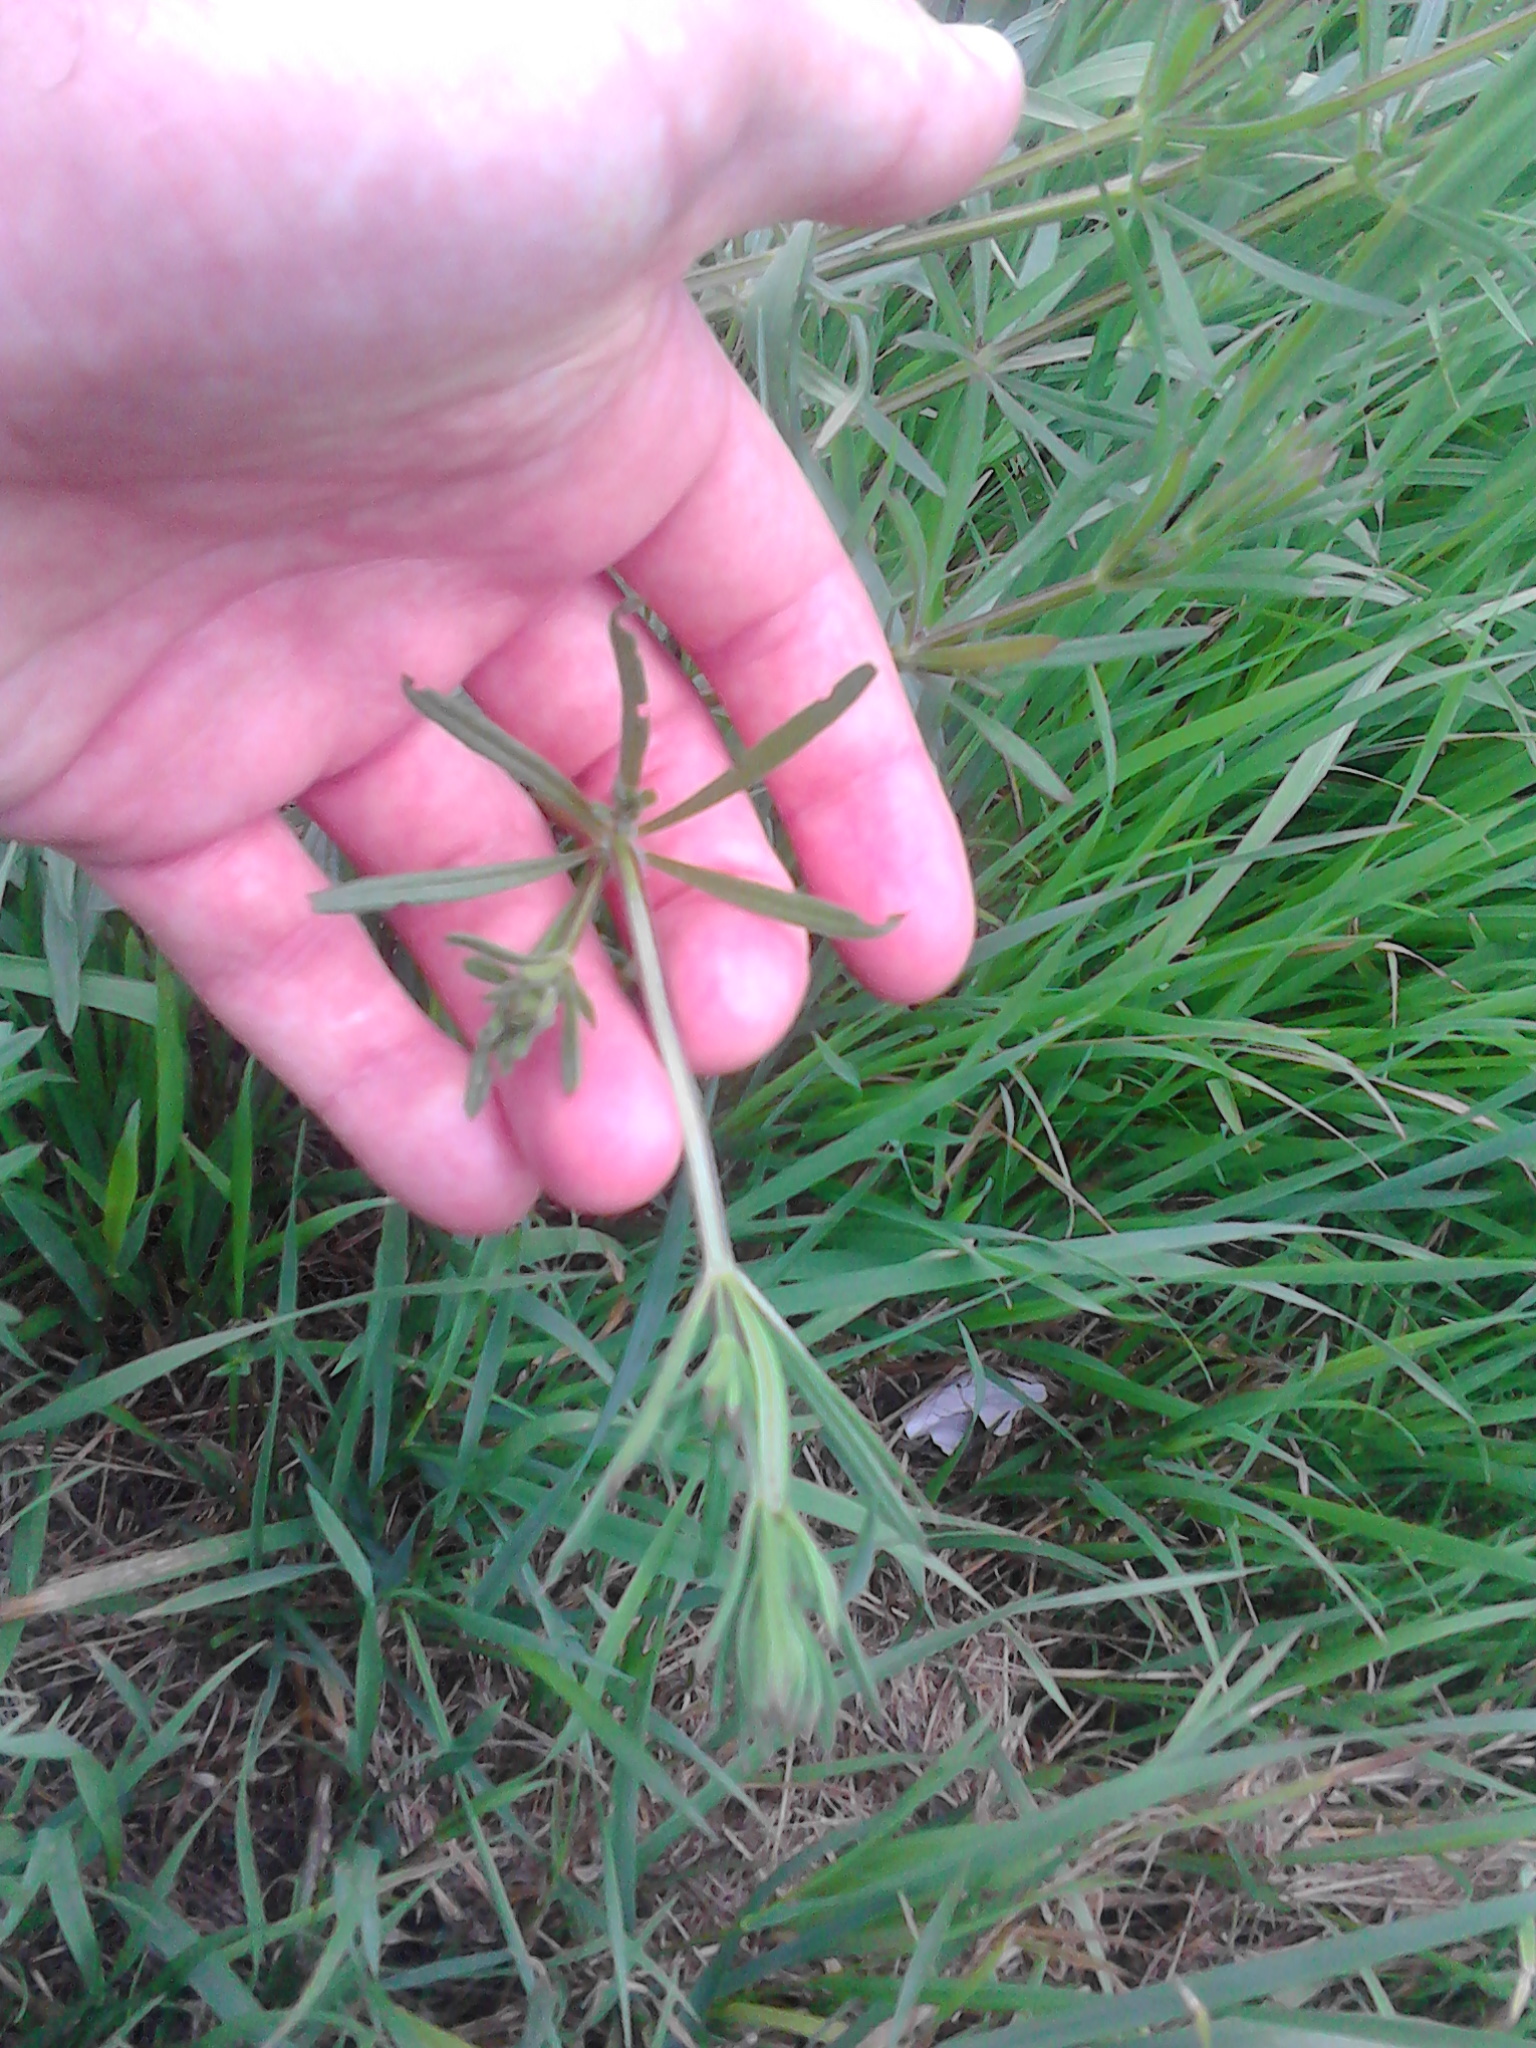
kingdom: Plantae
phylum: Tracheophyta
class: Magnoliopsida
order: Gentianales
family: Rubiaceae
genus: Galium
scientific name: Galium aparine
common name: Cleavers
